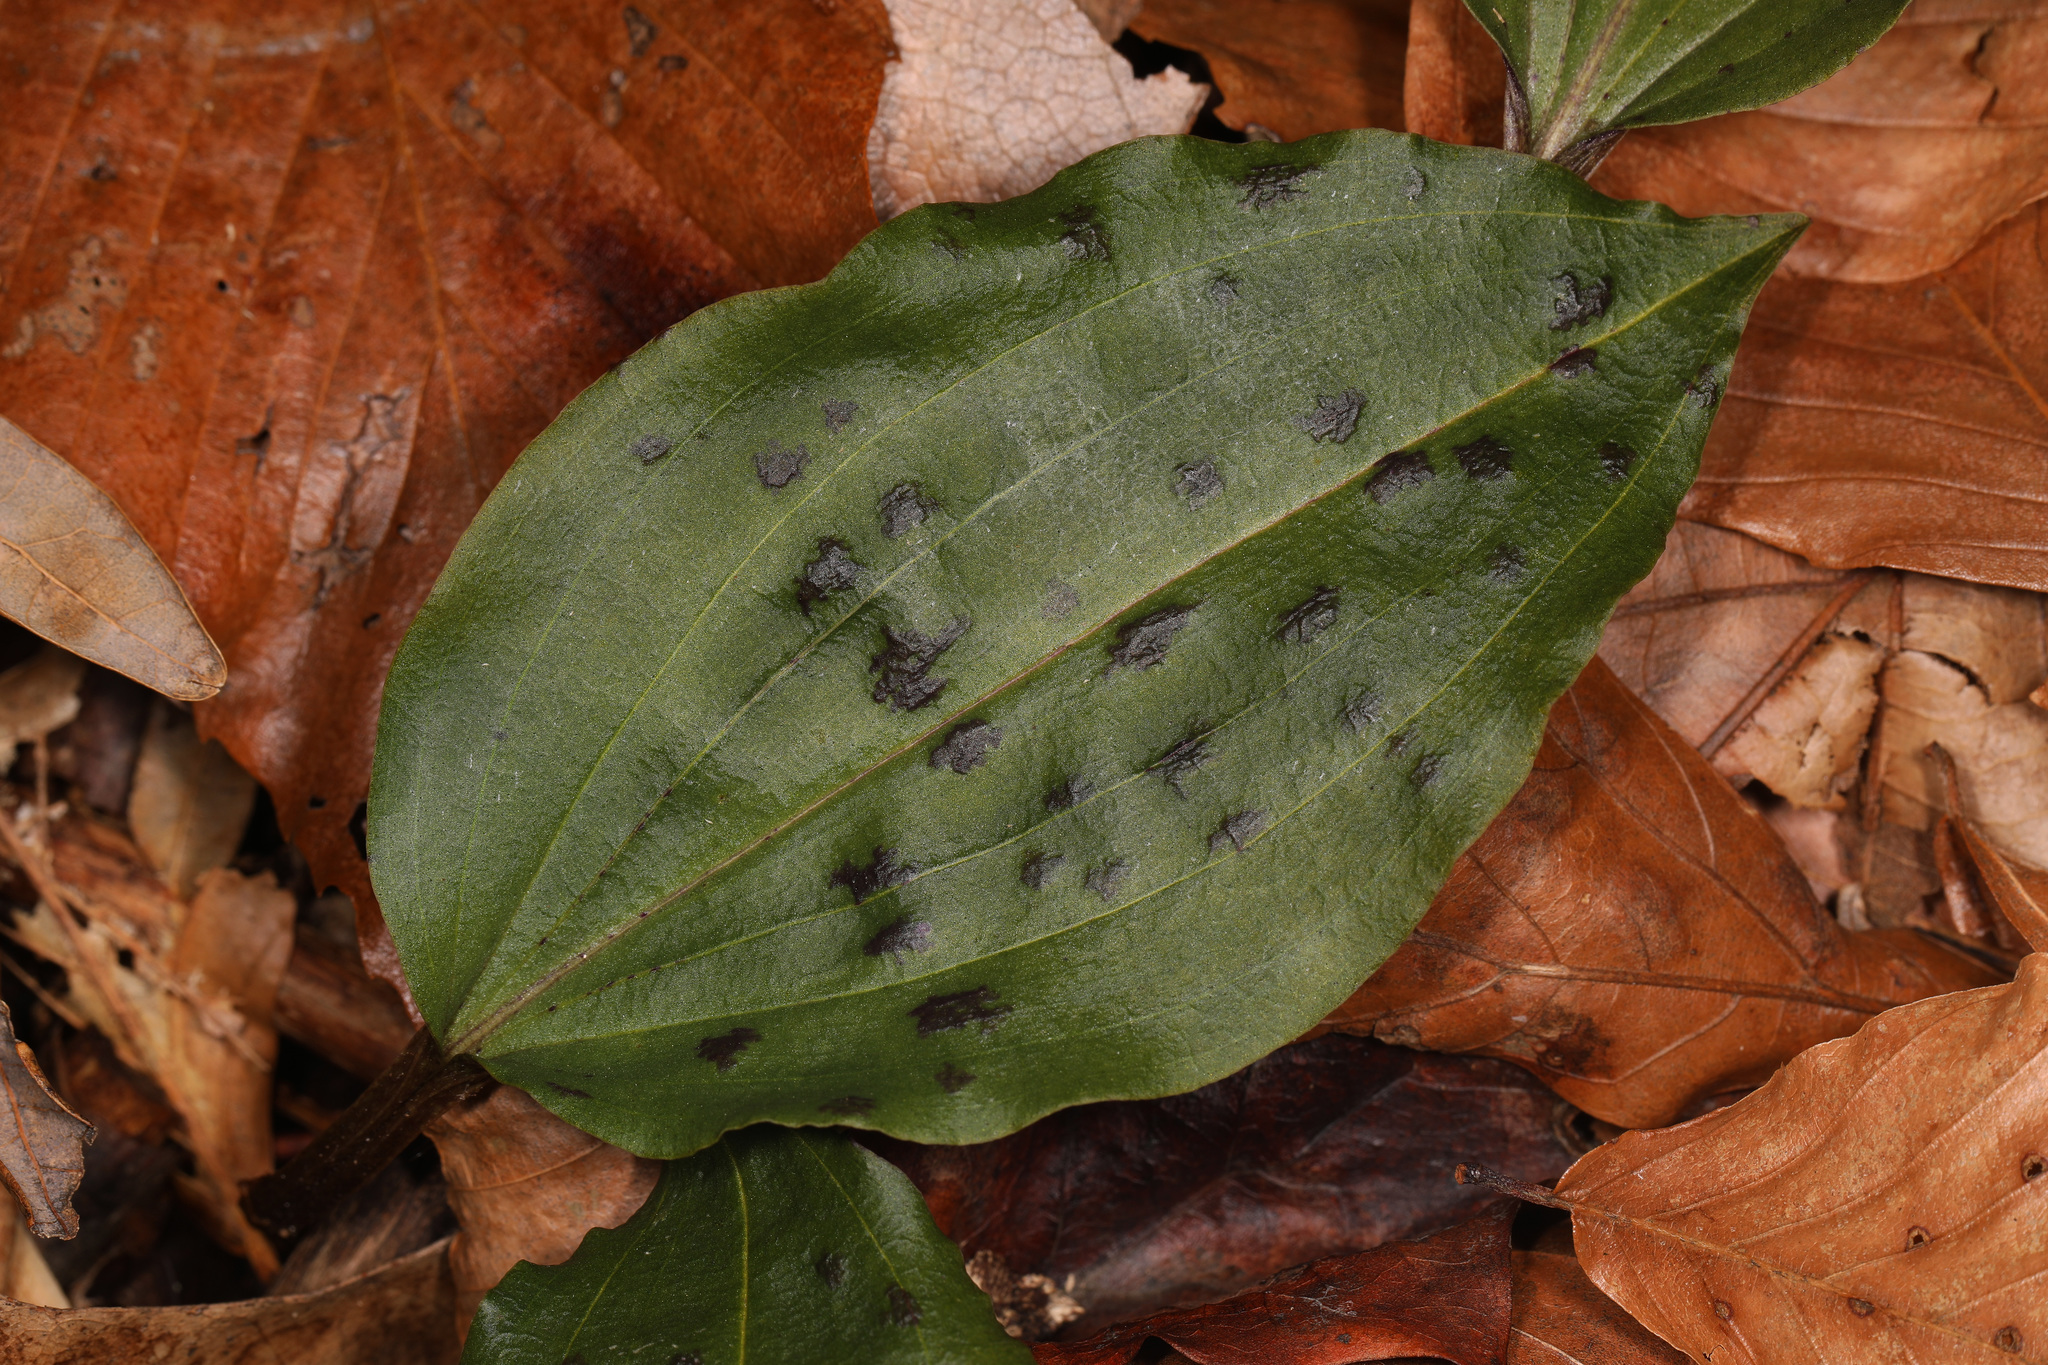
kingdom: Plantae
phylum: Tracheophyta
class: Liliopsida
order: Asparagales
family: Orchidaceae
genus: Tipularia
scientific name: Tipularia discolor
